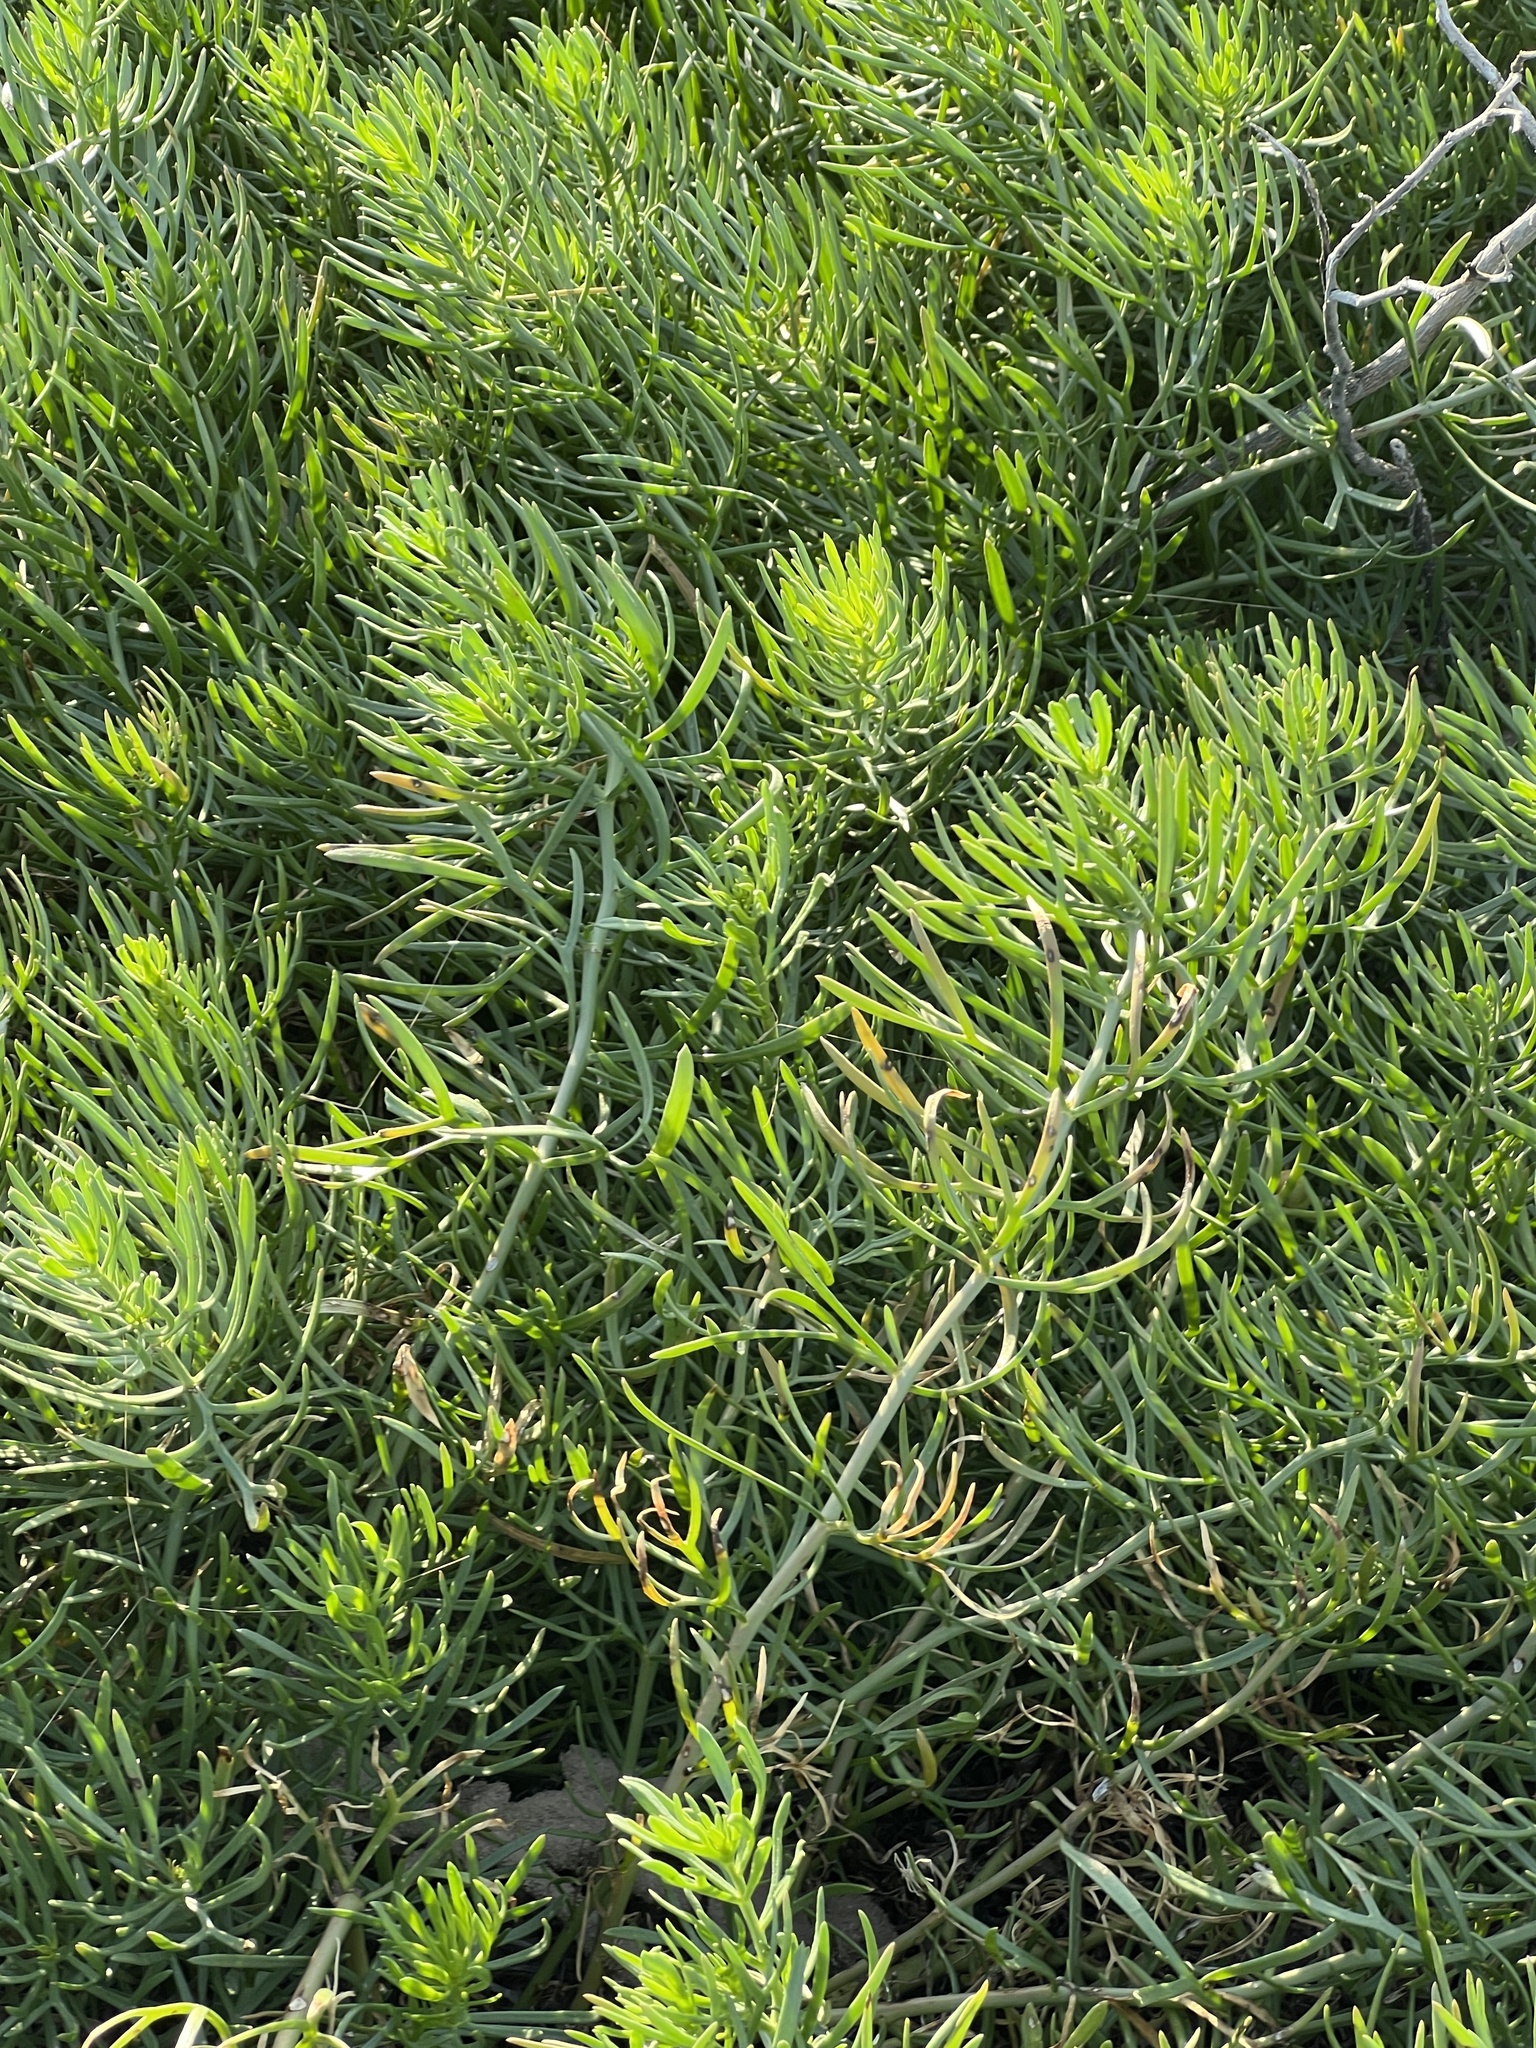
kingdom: Plantae
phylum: Tracheophyta
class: Magnoliopsida
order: Sapindales
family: Tetradiclidaceae
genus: Peganum
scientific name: Peganum harmala
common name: Harmal peganum
